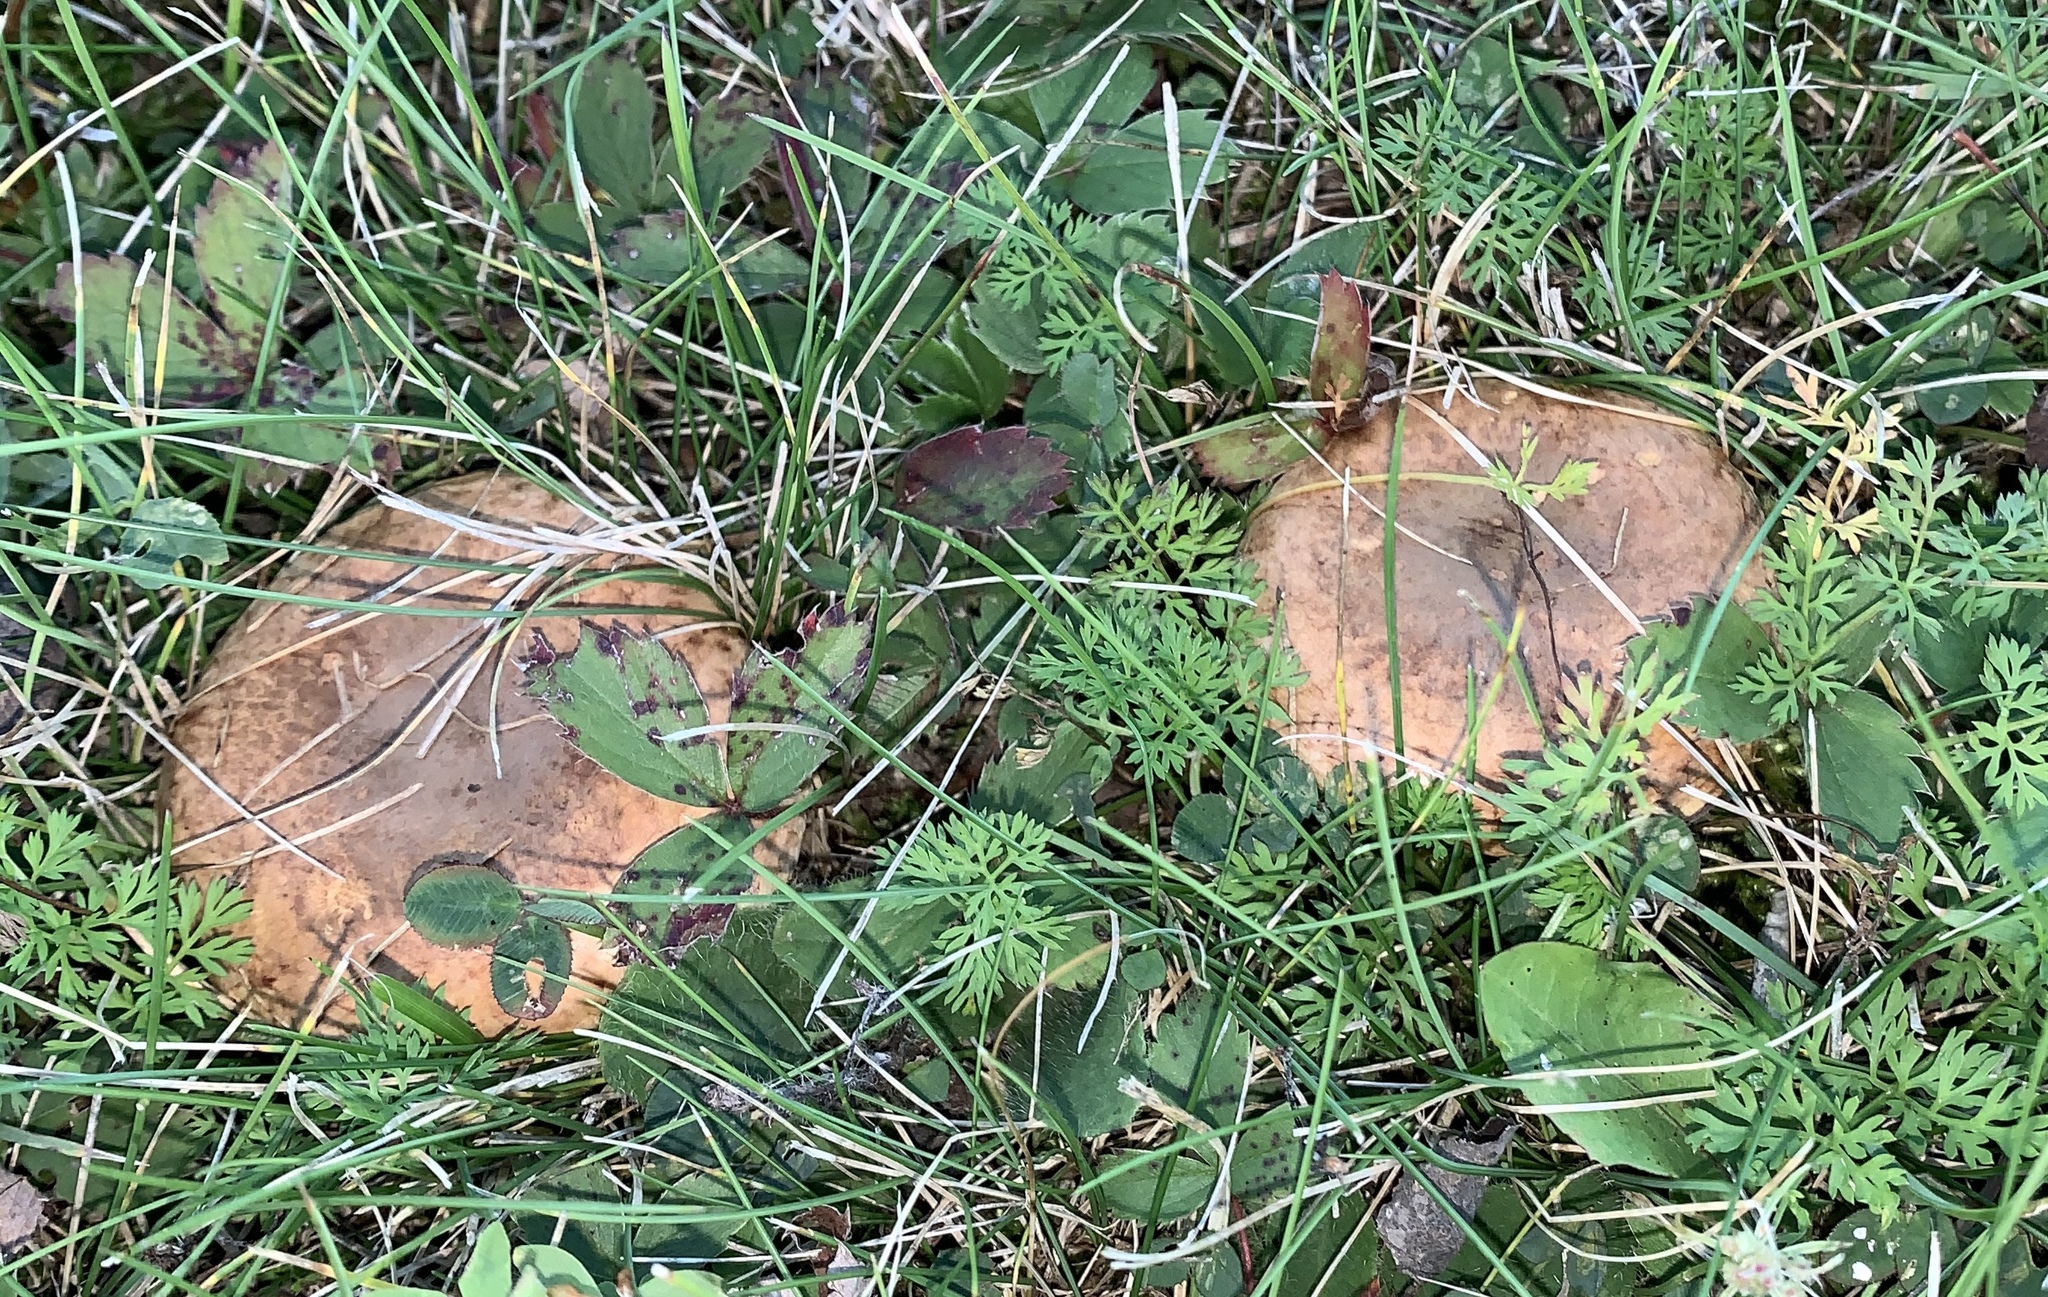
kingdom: Fungi
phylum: Basidiomycota
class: Agaricomycetes
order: Boletales
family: Paxillaceae
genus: Paxillus
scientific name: Paxillus involutus
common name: Brown roll rim
